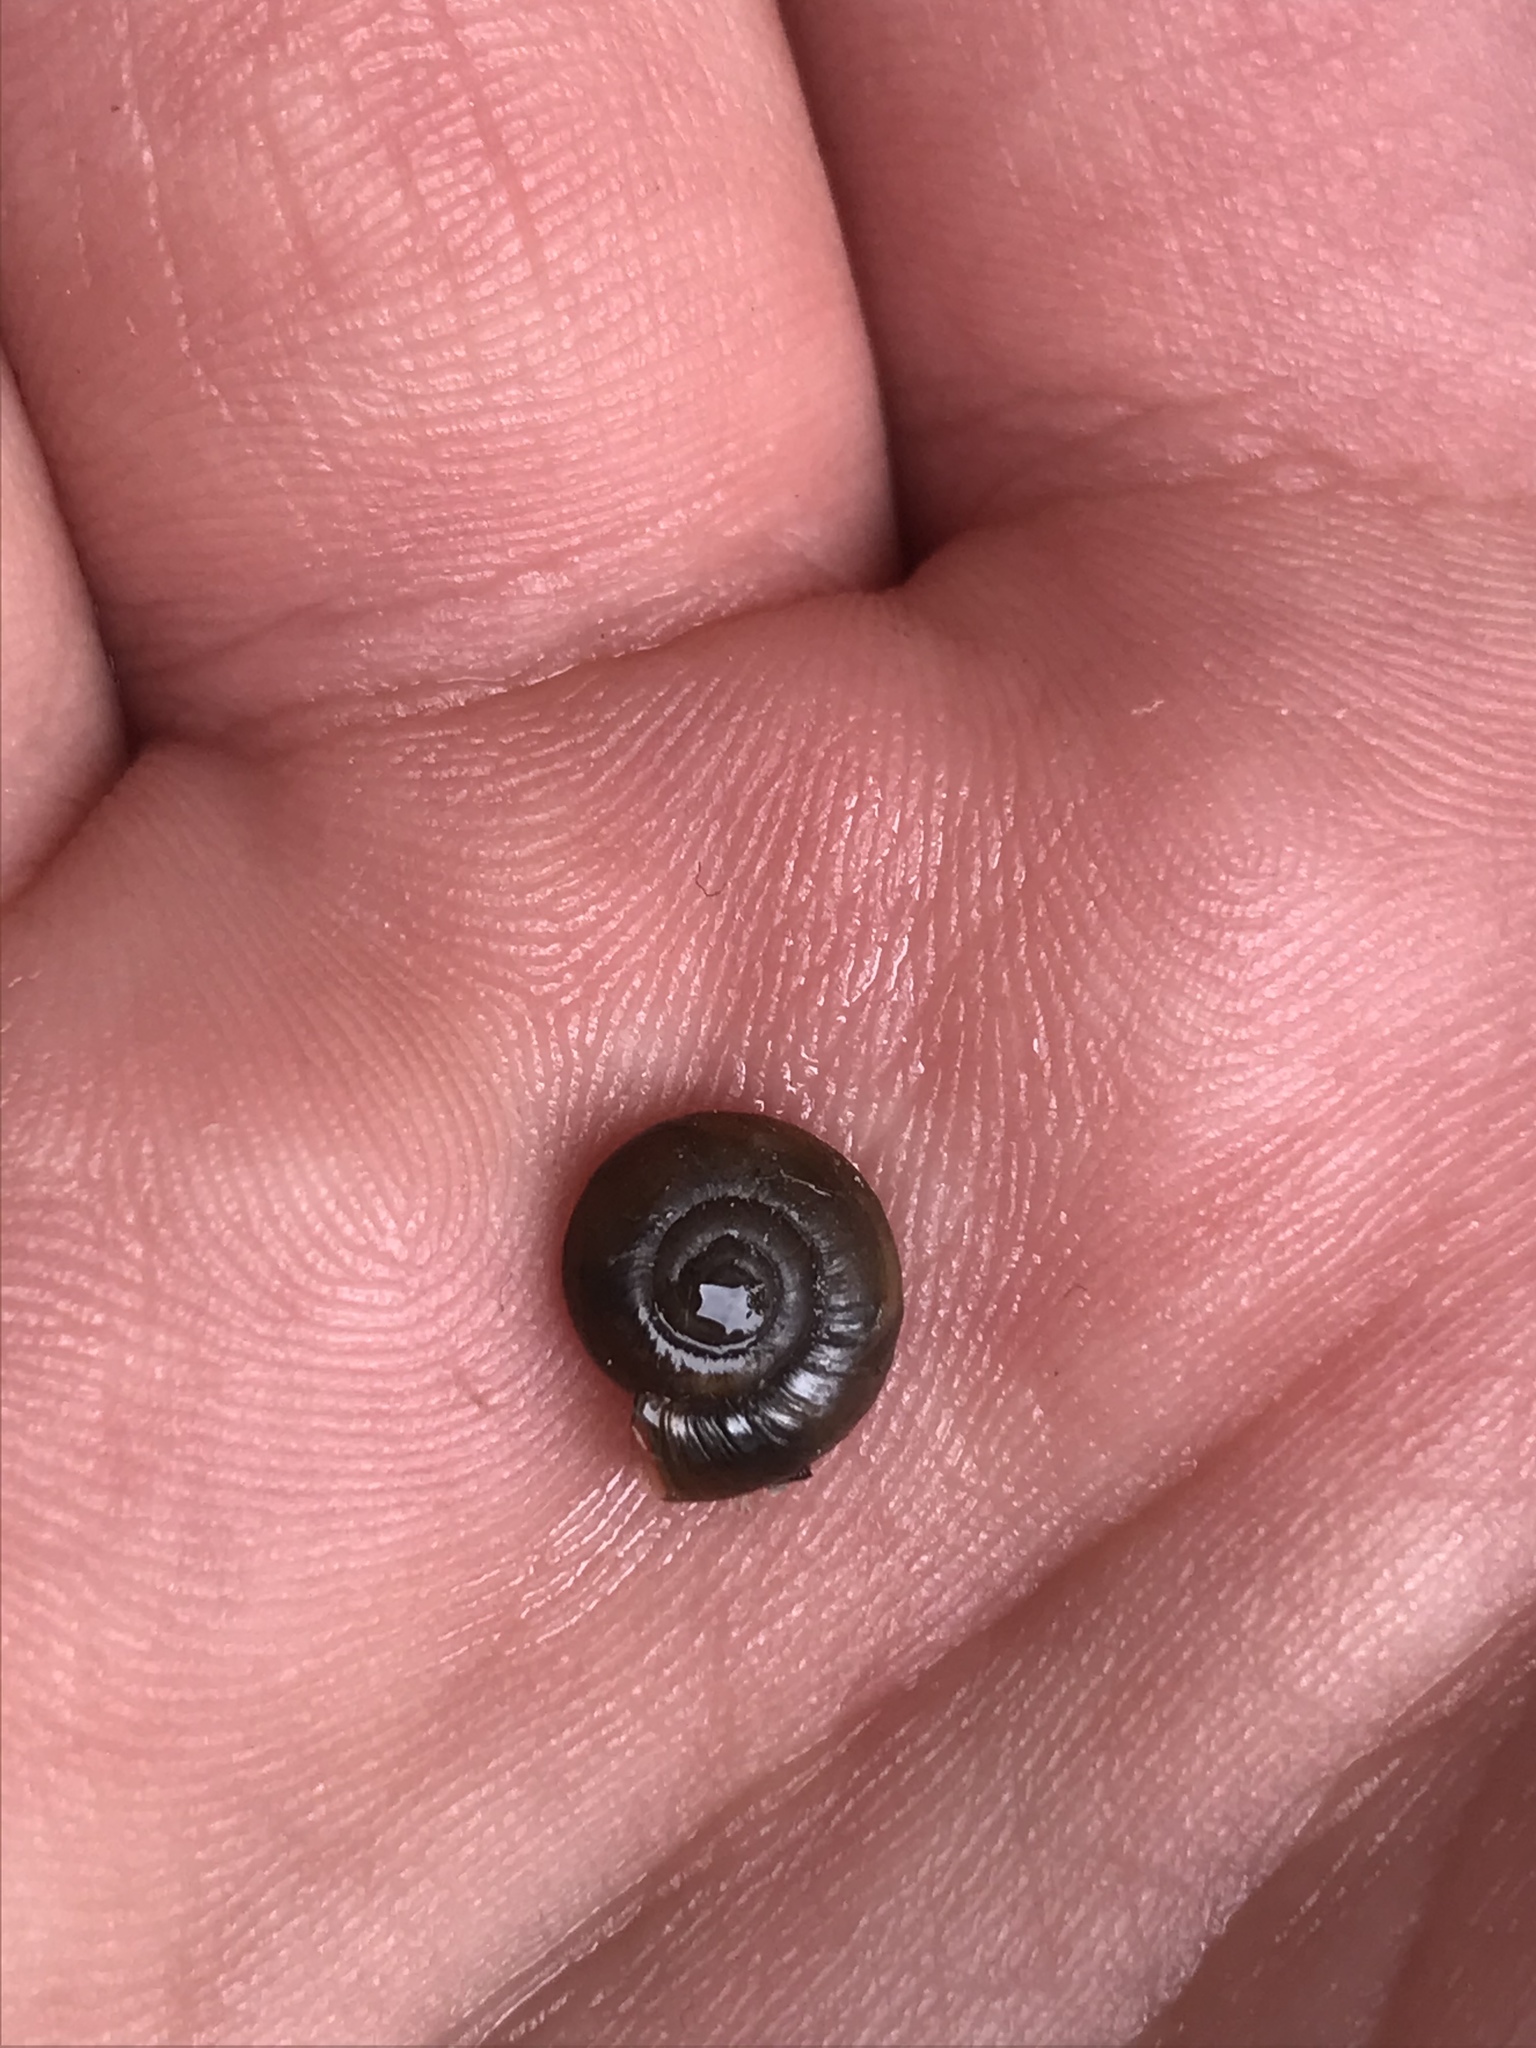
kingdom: Animalia
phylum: Mollusca
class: Gastropoda
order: Stylommatophora
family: Oxychilidae
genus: Oxychilus
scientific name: Oxychilus
